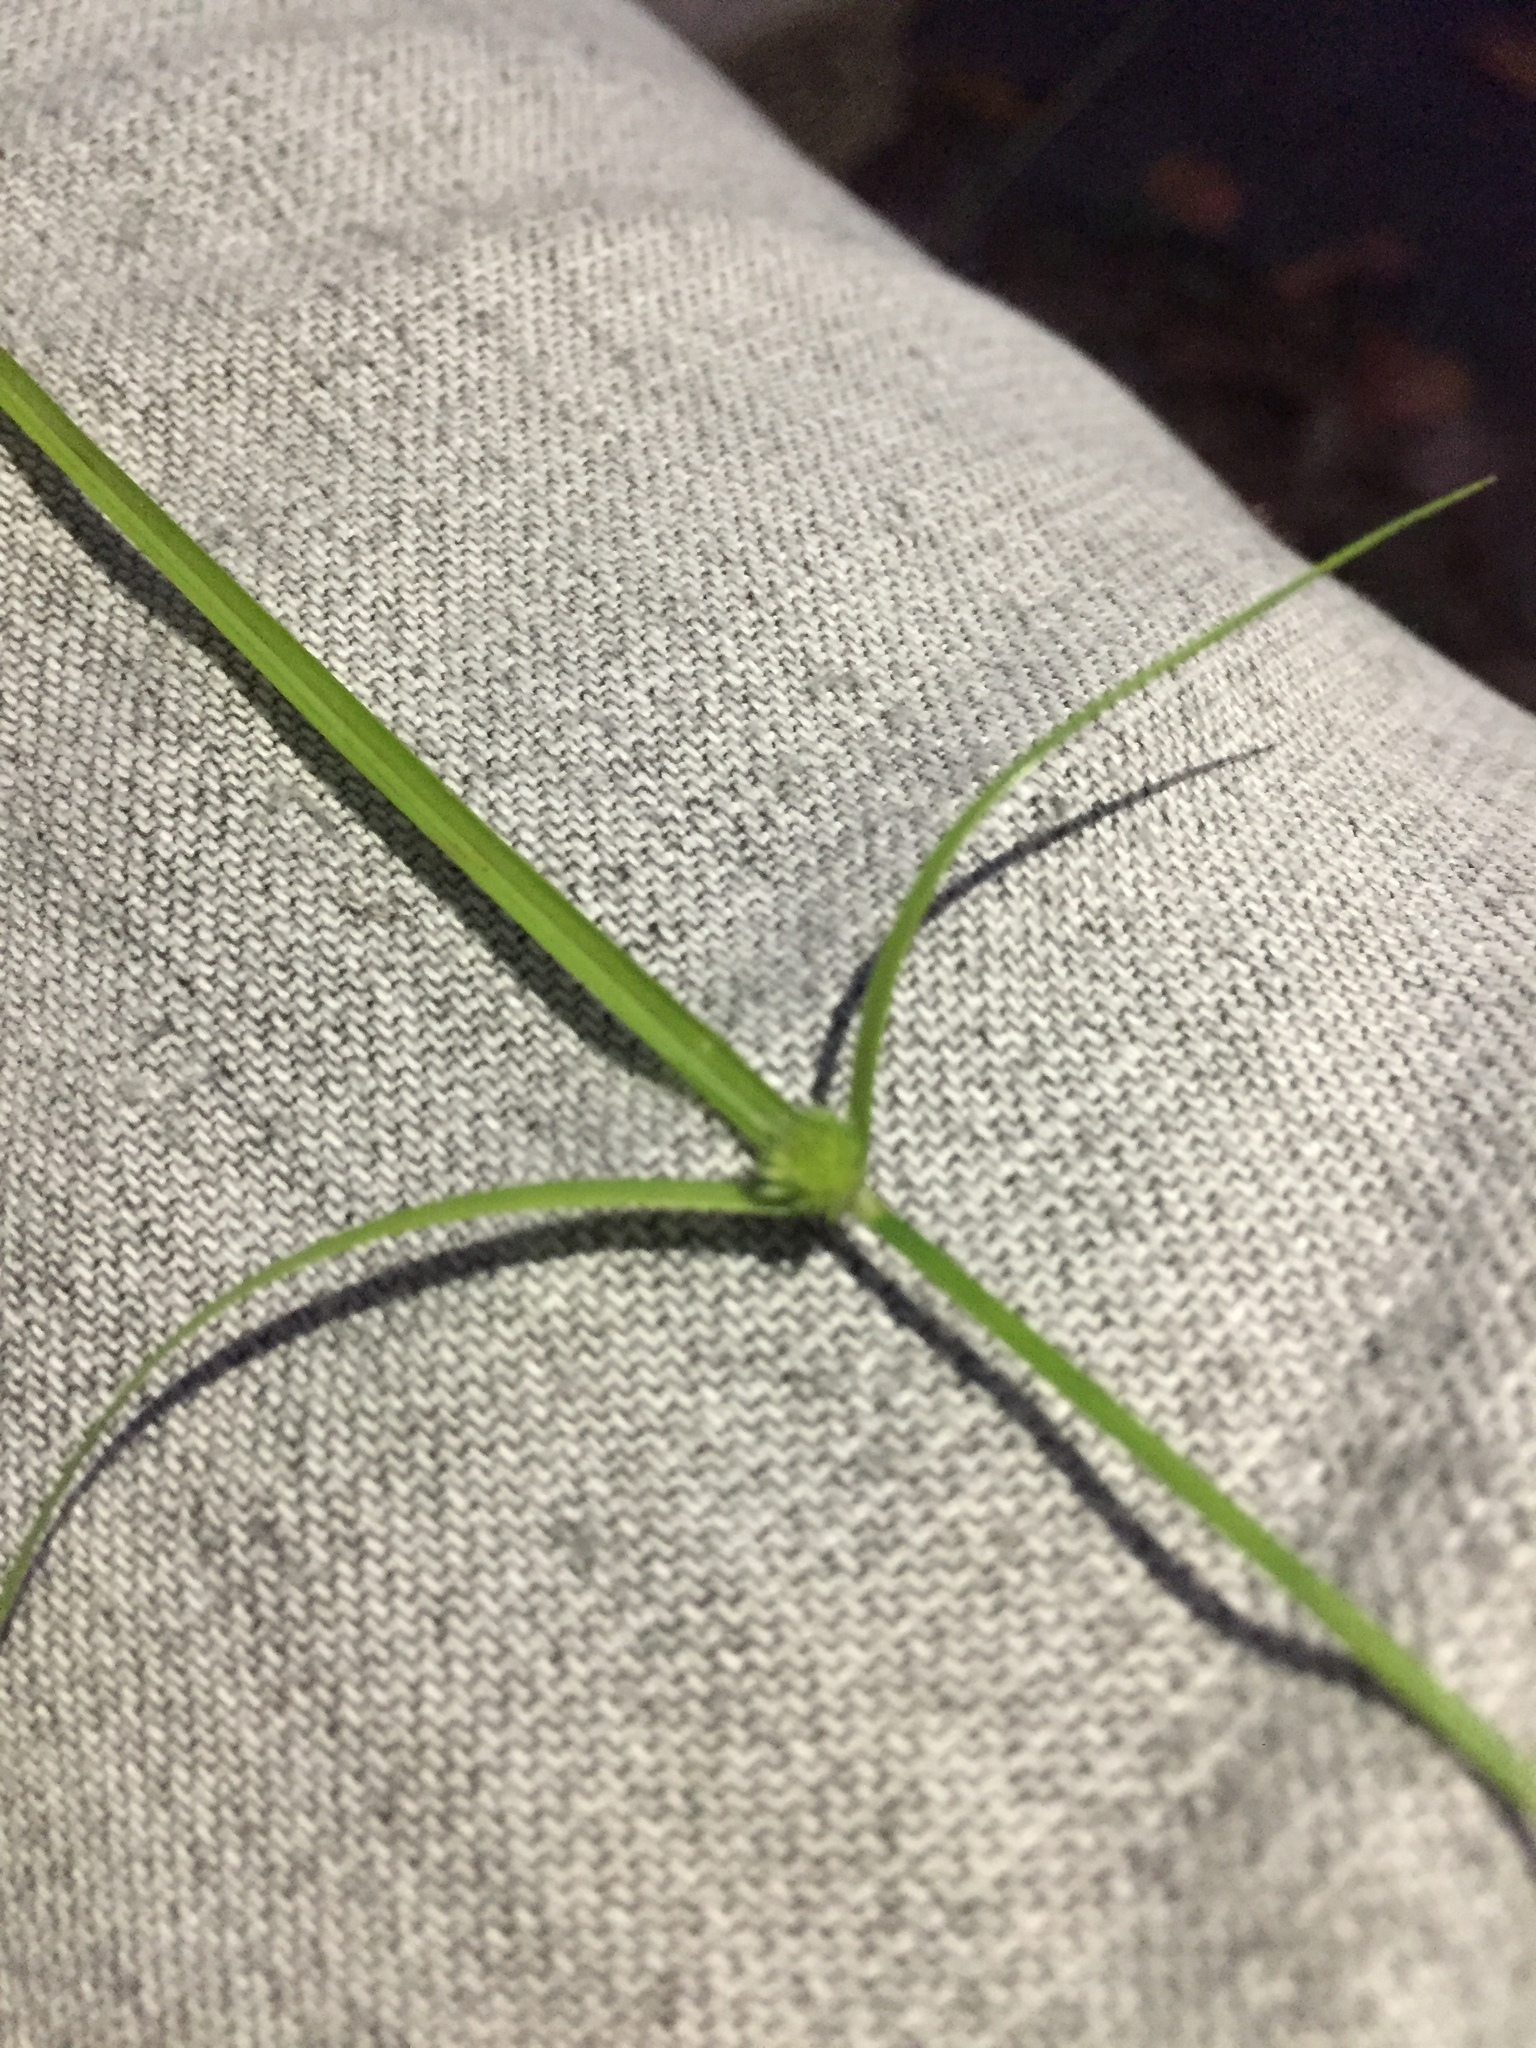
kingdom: Plantae
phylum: Tracheophyta
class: Liliopsida
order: Poales
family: Cyperaceae
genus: Cyperus
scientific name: Cyperus brevifolius
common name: Globe kyllinga
